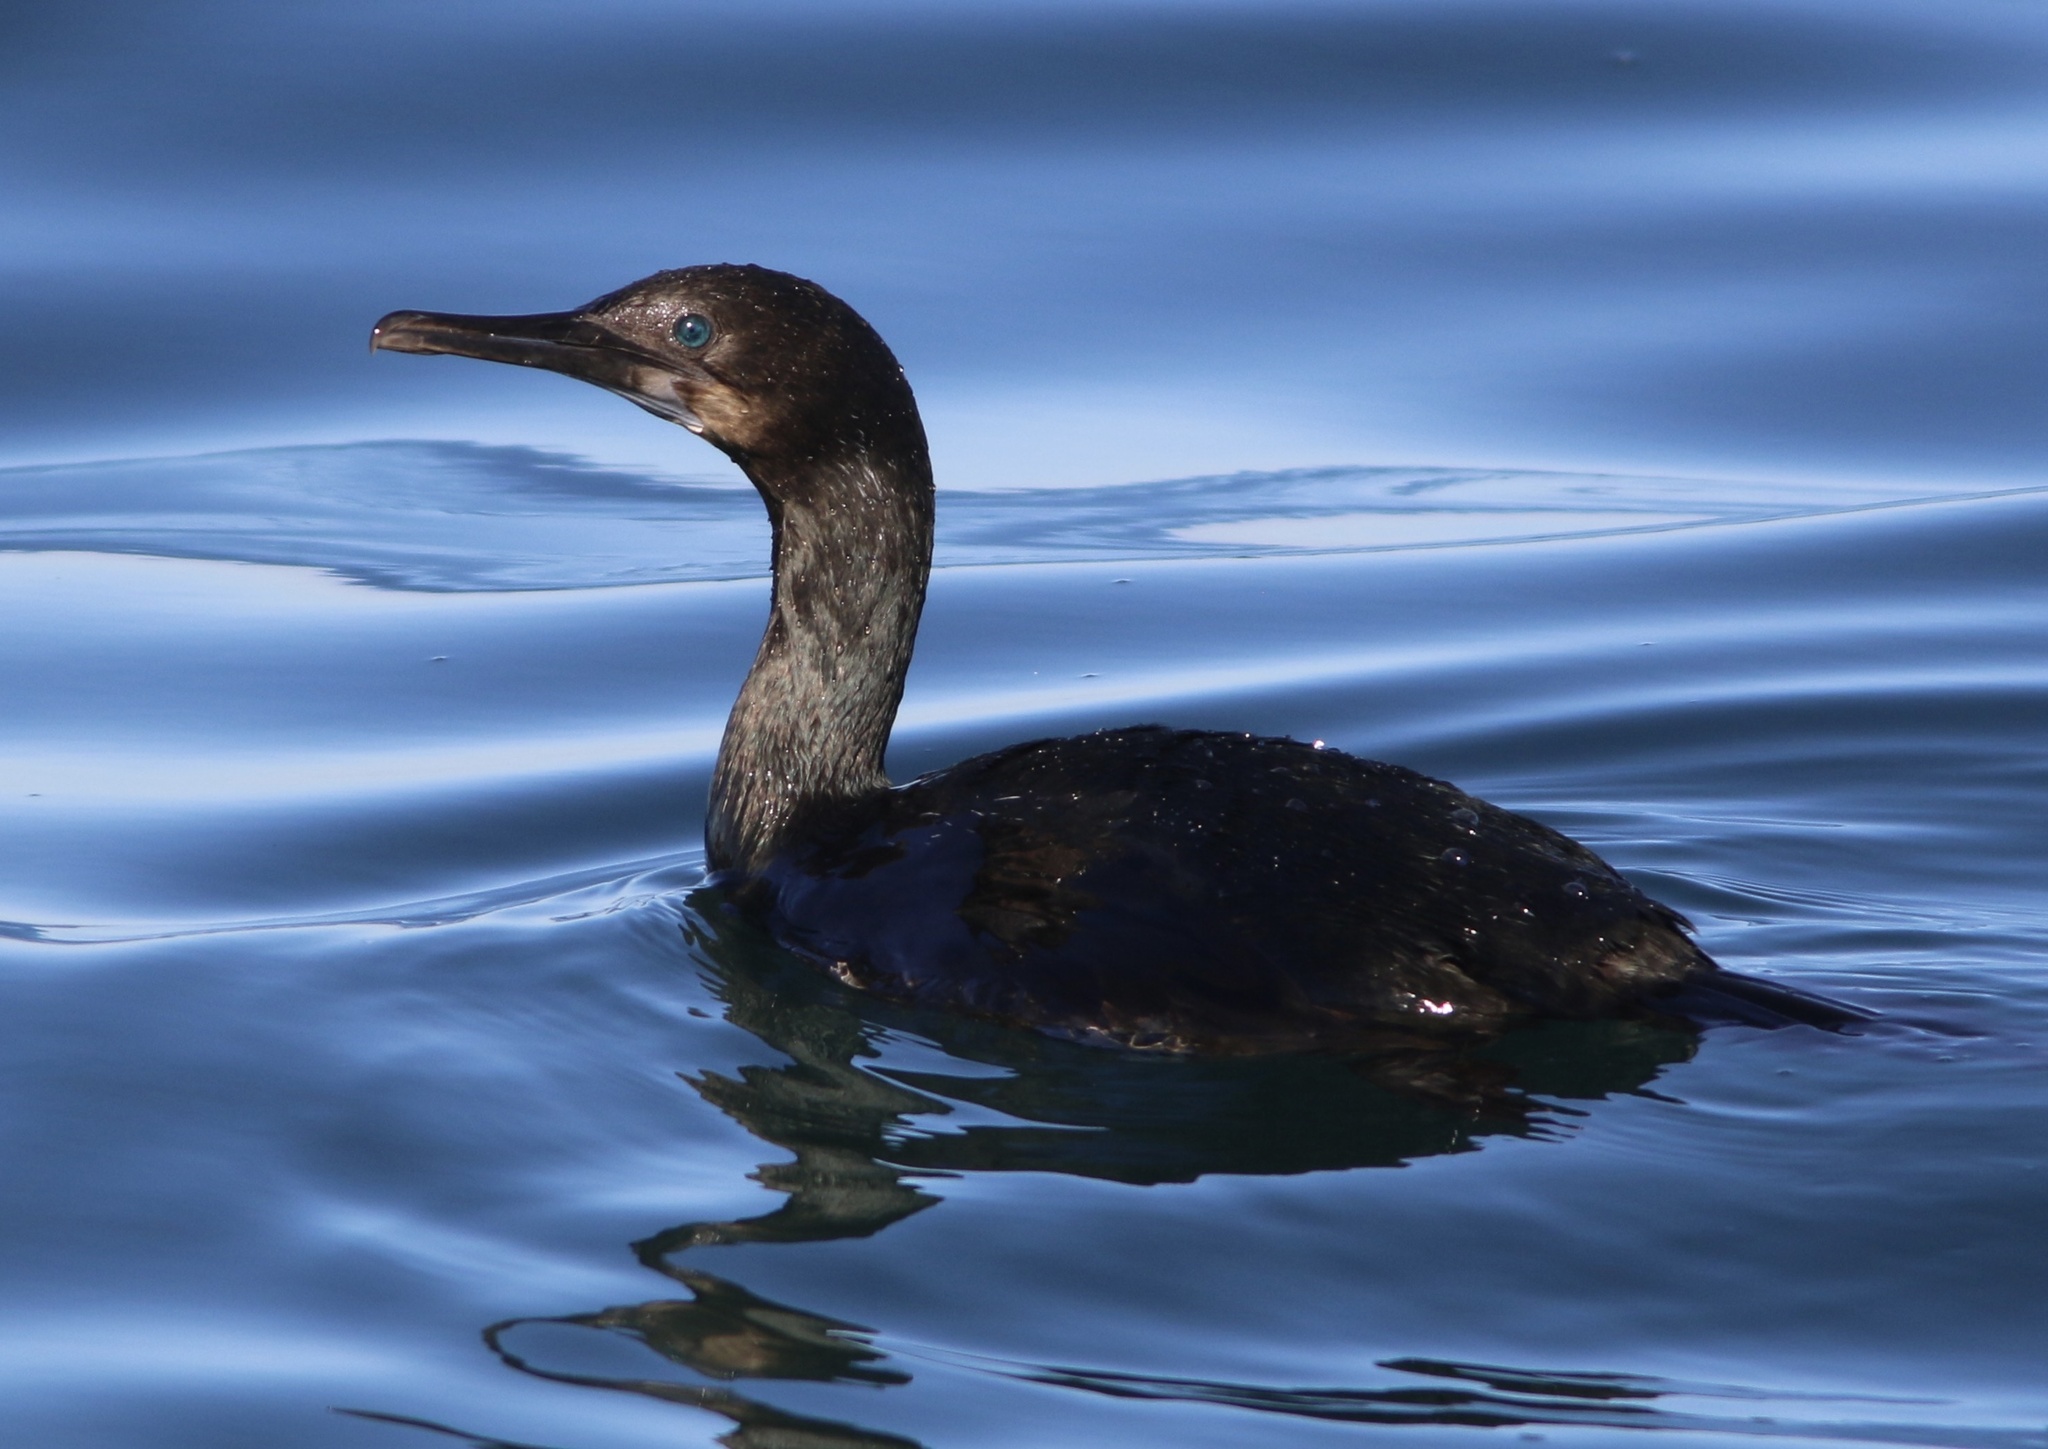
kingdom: Animalia
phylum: Chordata
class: Aves
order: Suliformes
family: Phalacrocoracidae
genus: Urile
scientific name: Urile penicillatus
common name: Brandt's cormorant
